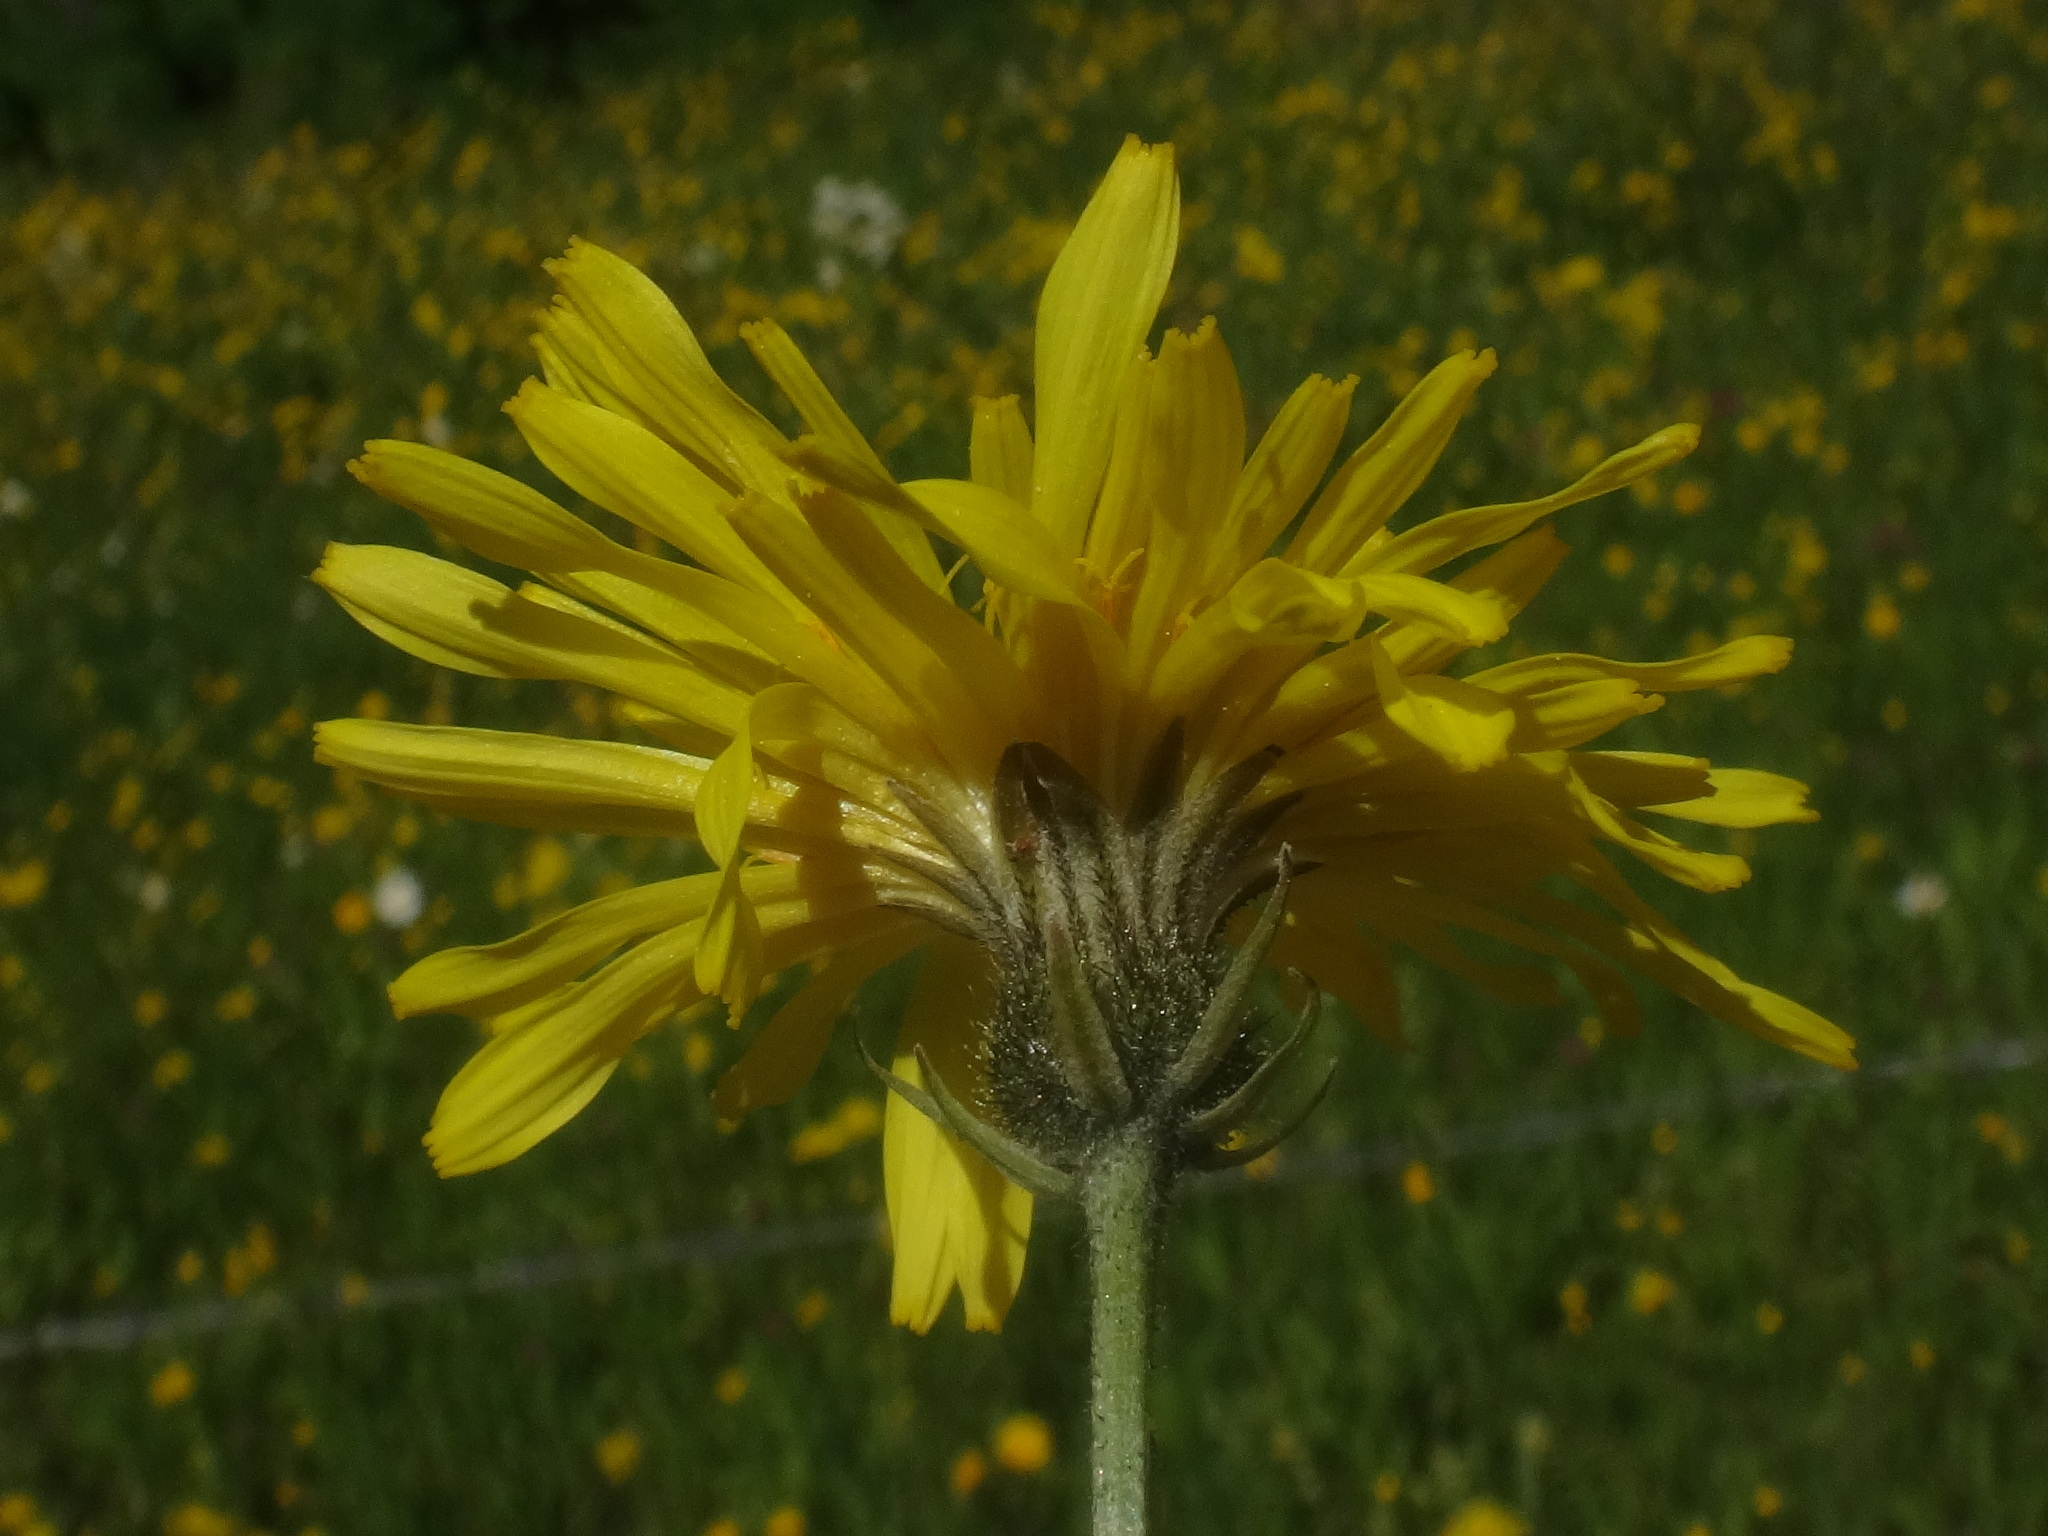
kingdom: Plantae
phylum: Tracheophyta
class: Magnoliopsida
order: Asterales
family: Asteraceae
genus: Crepis
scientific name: Crepis biennis
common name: Rough hawk's-beard
